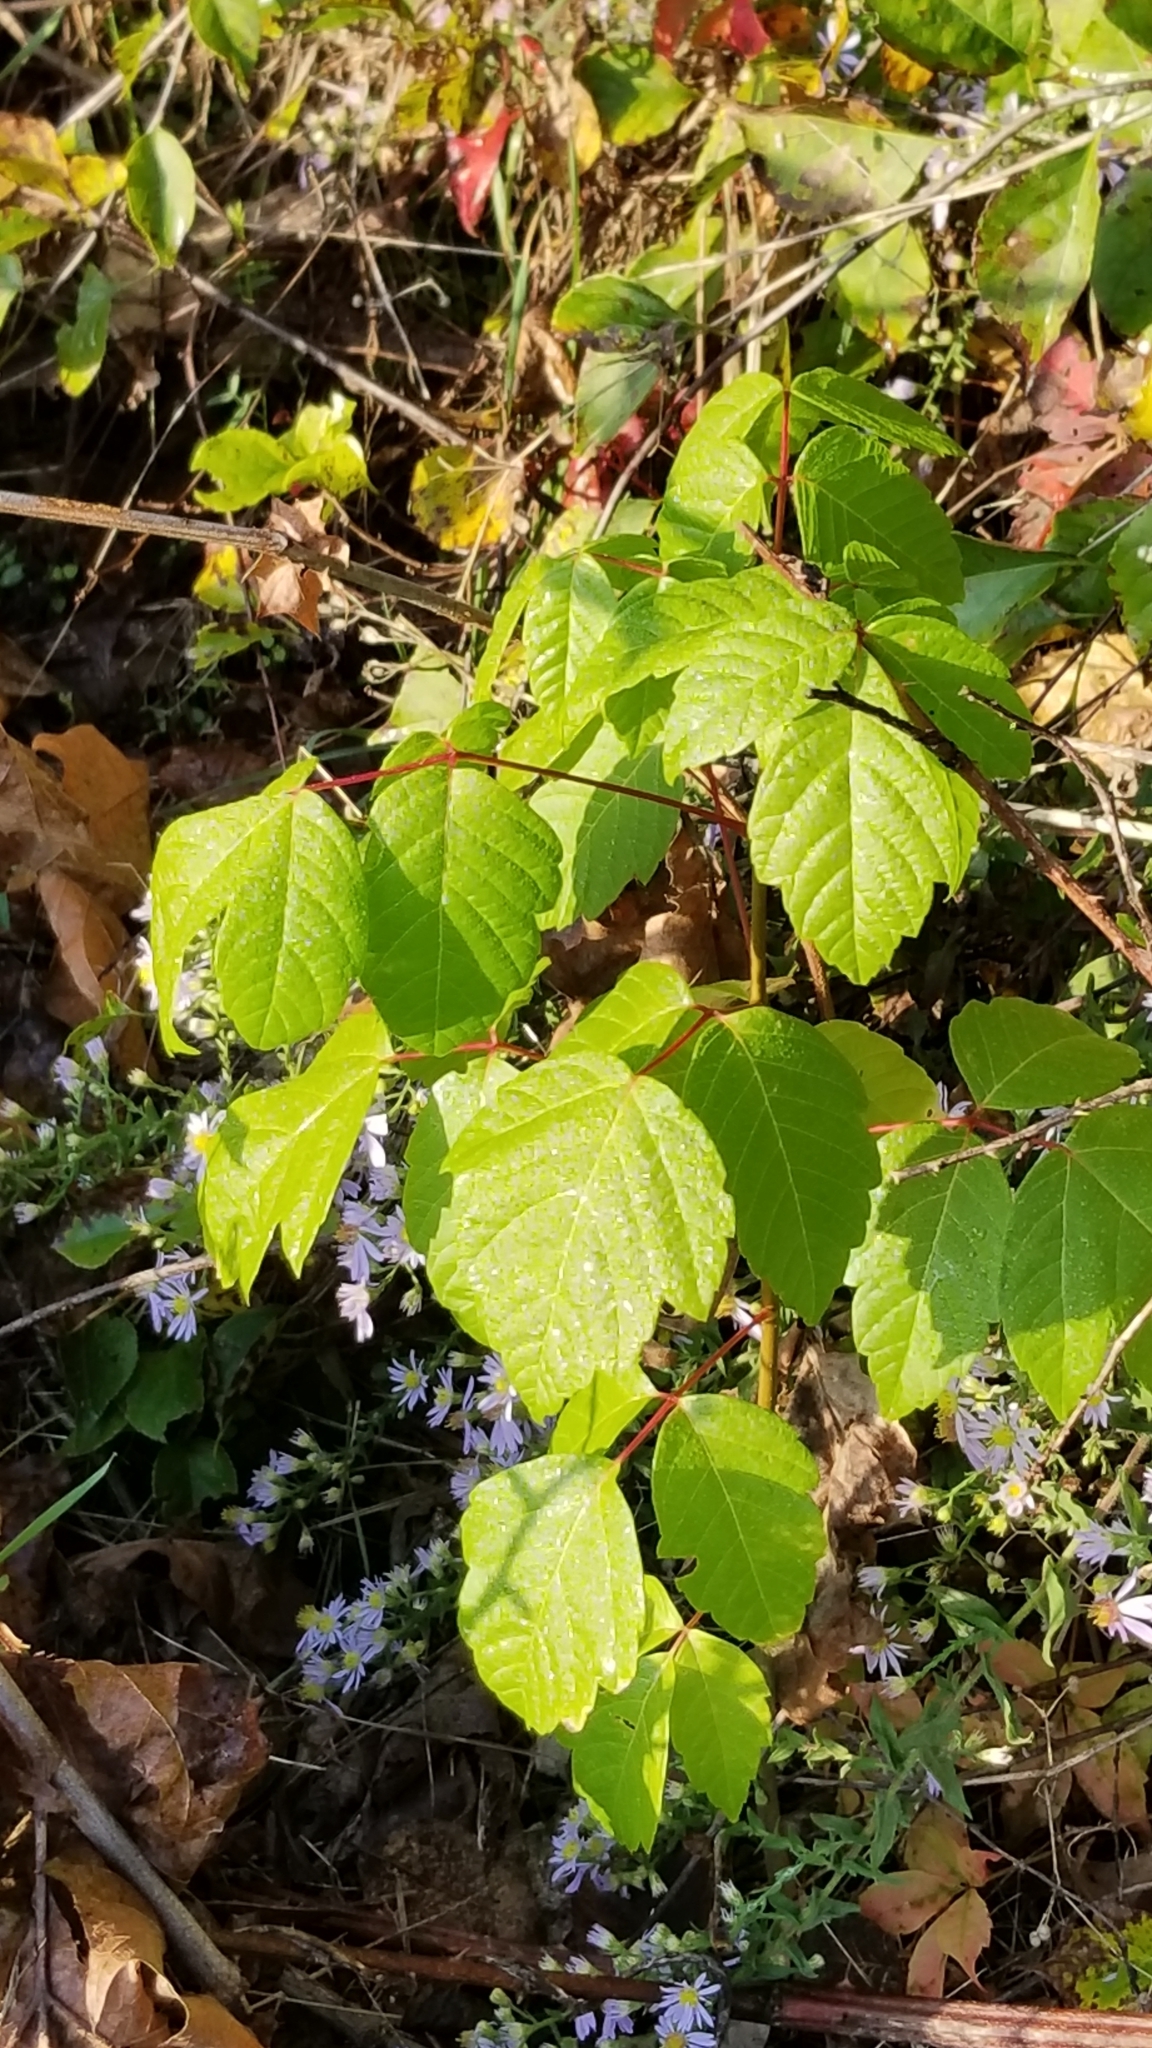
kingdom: Plantae
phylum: Tracheophyta
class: Magnoliopsida
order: Sapindales
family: Sapindaceae
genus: Acer
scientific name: Acer negundo
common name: Ashleaf maple
